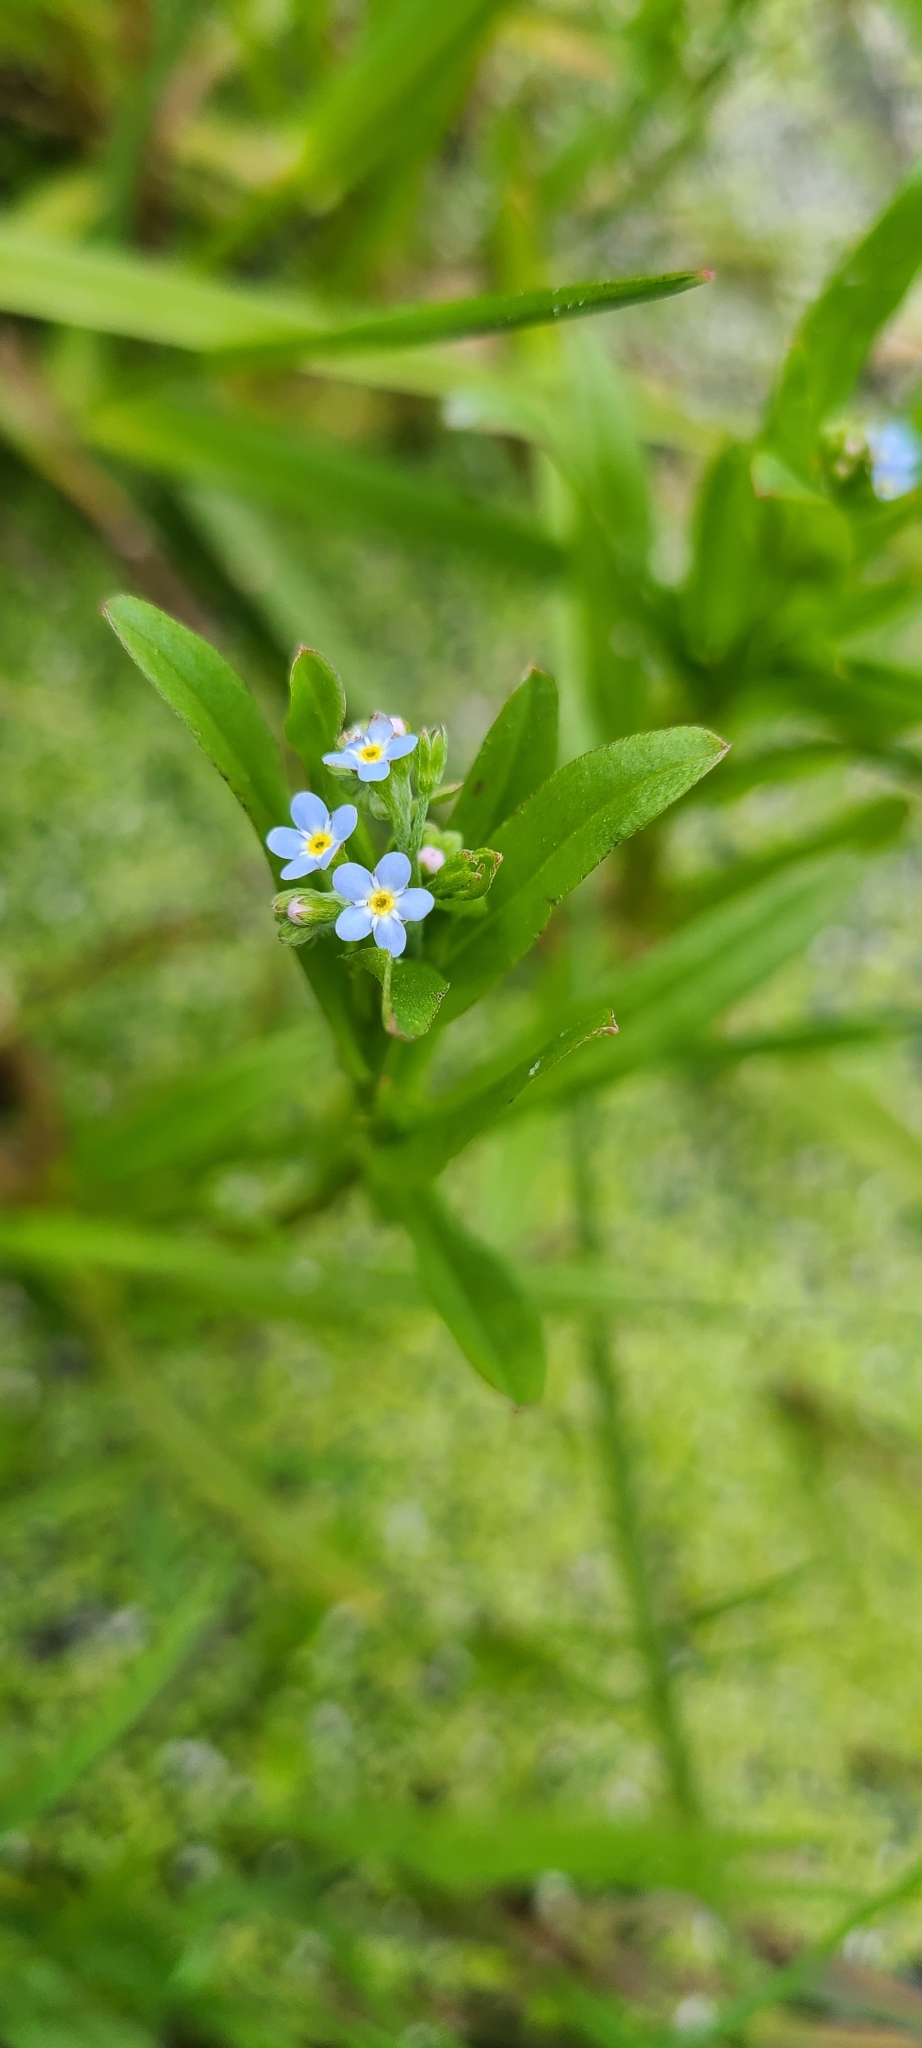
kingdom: Plantae
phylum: Tracheophyta
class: Magnoliopsida
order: Boraginales
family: Boraginaceae
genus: Myosotis
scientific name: Myosotis scorpioides
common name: Water forget-me-not
